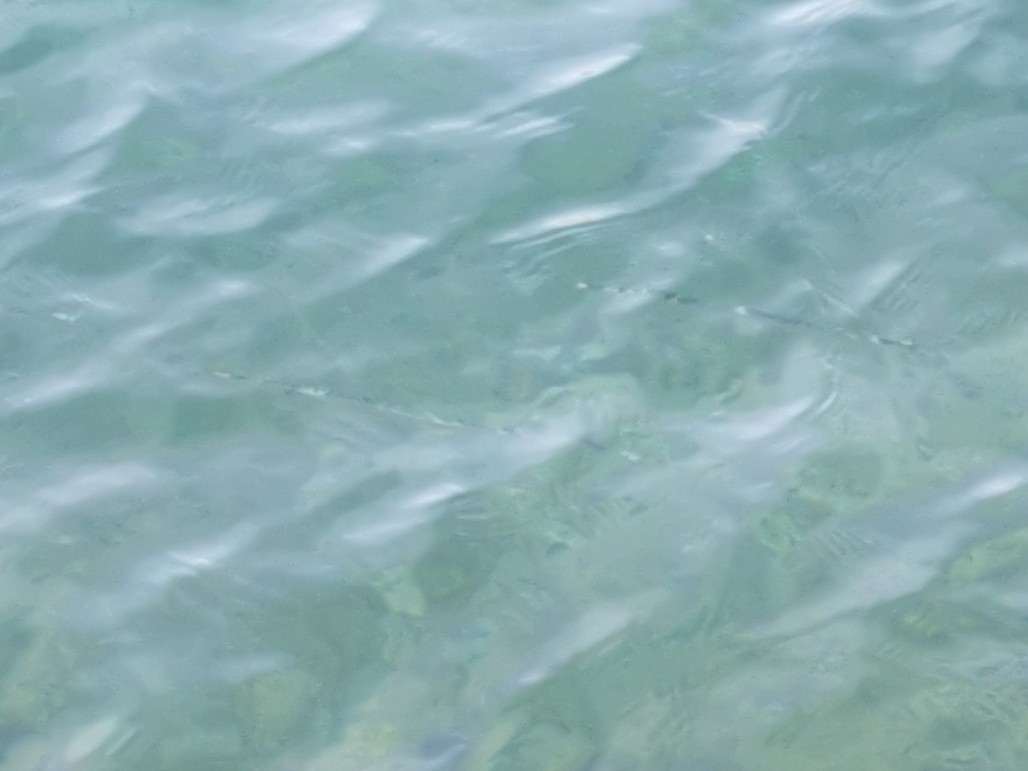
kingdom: Animalia
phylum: Chordata
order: Beloniformes
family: Belonidae
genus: Belone
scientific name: Belone
